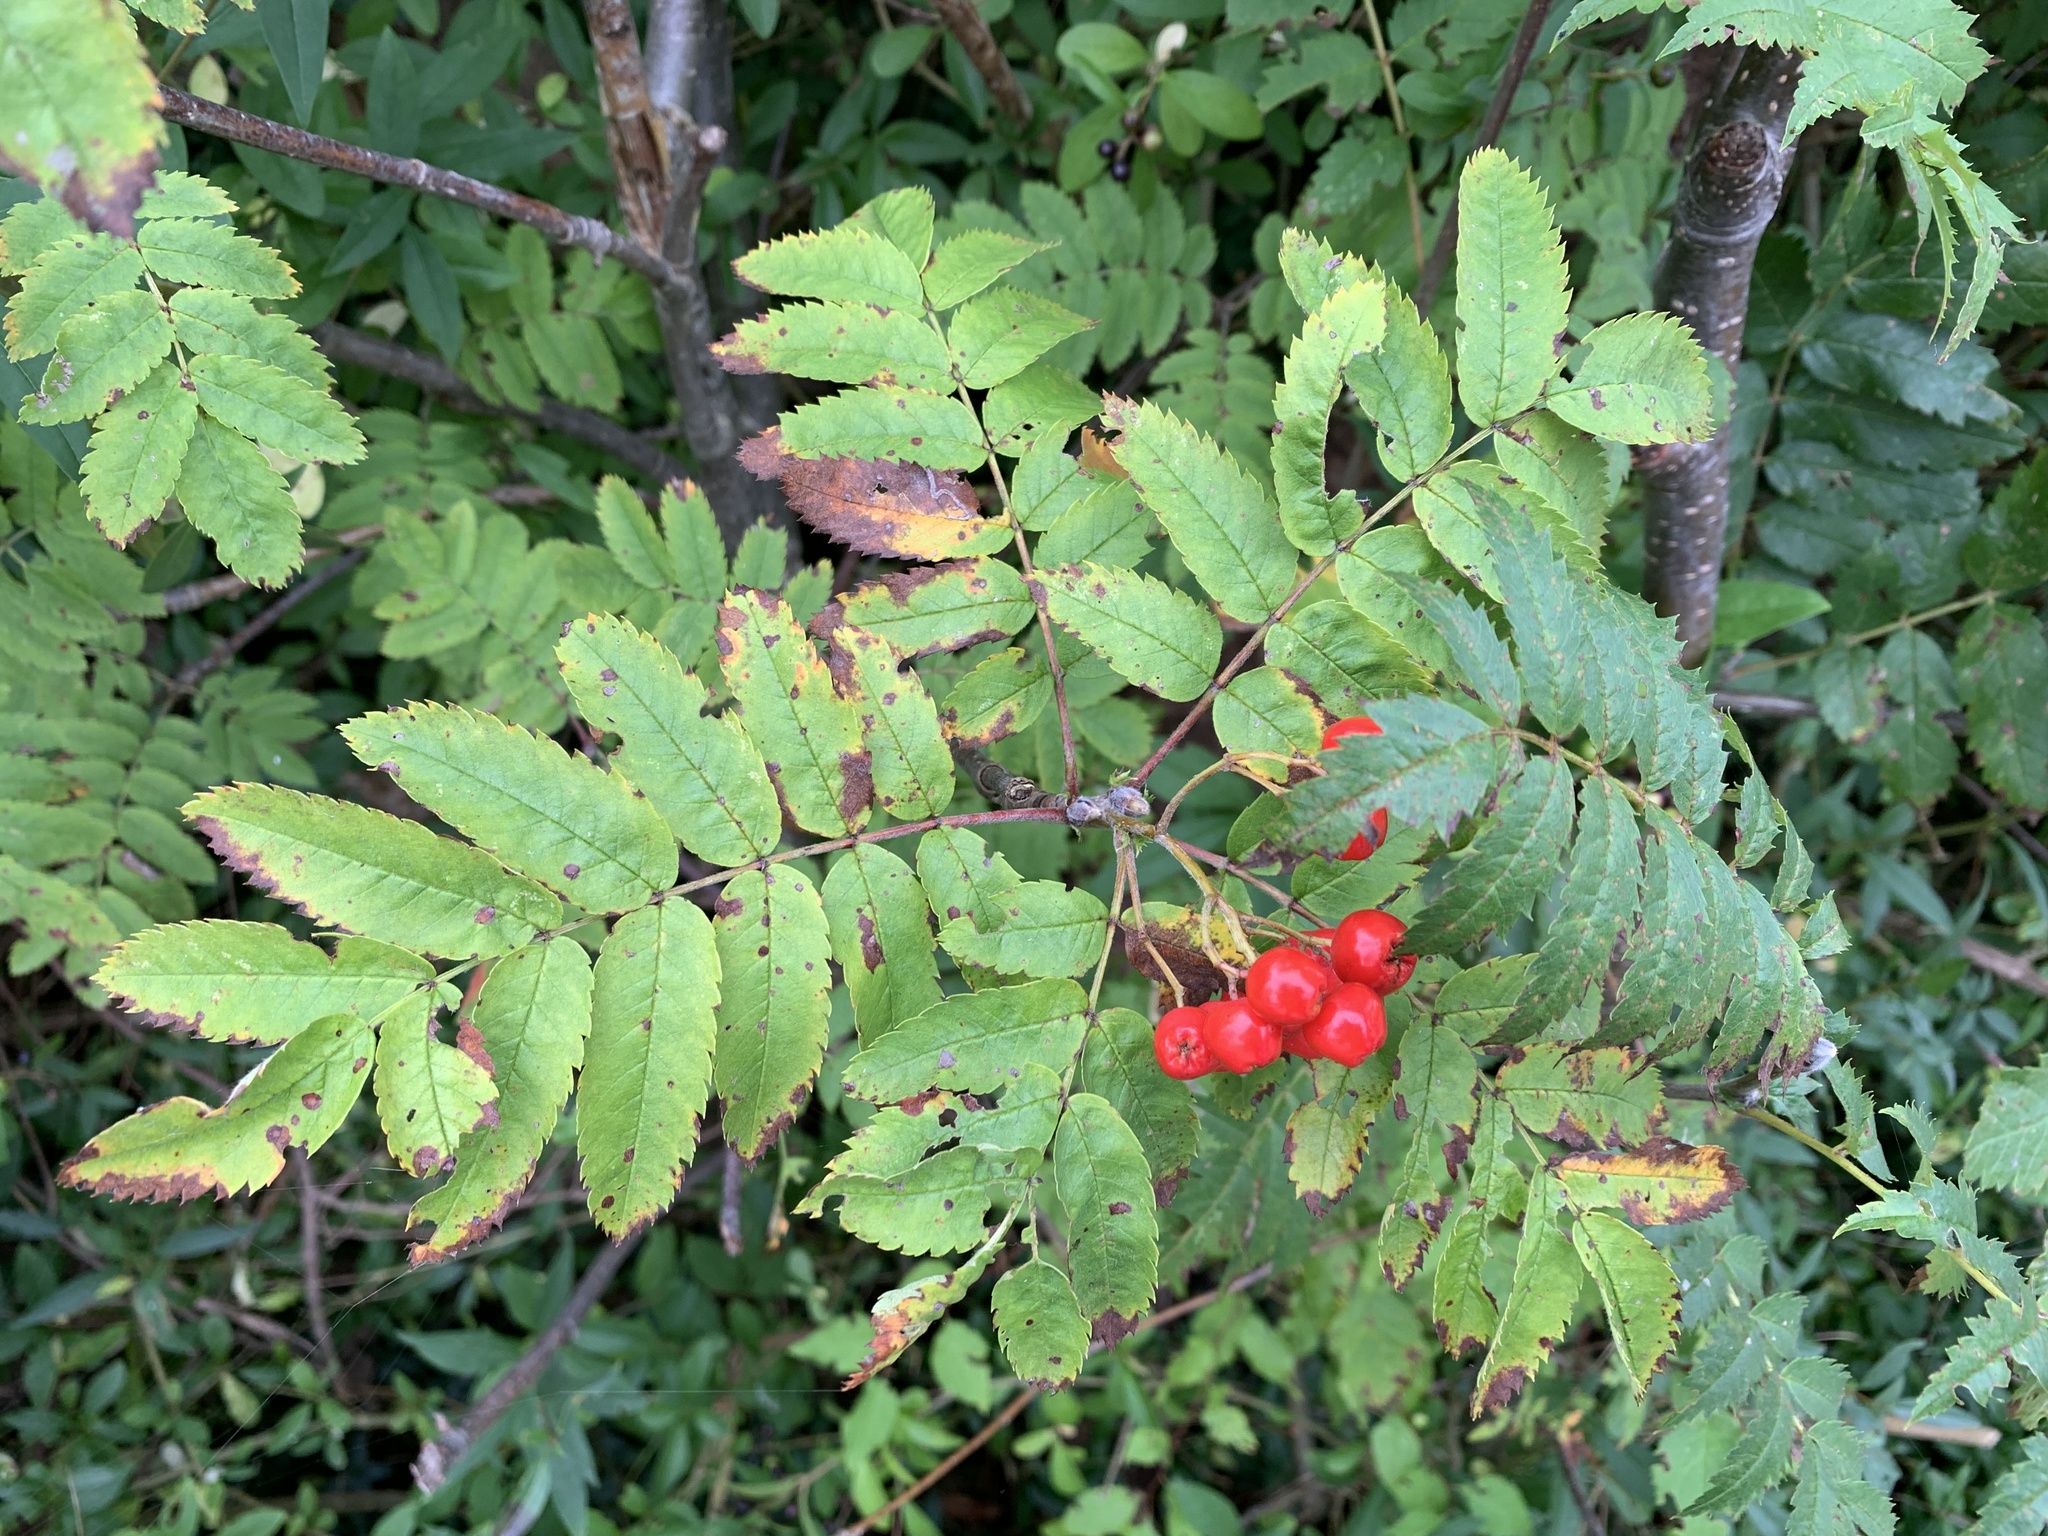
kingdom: Plantae
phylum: Tracheophyta
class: Magnoliopsida
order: Rosales
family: Rosaceae
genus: Sorbus
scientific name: Sorbus aucuparia
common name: Rowan
